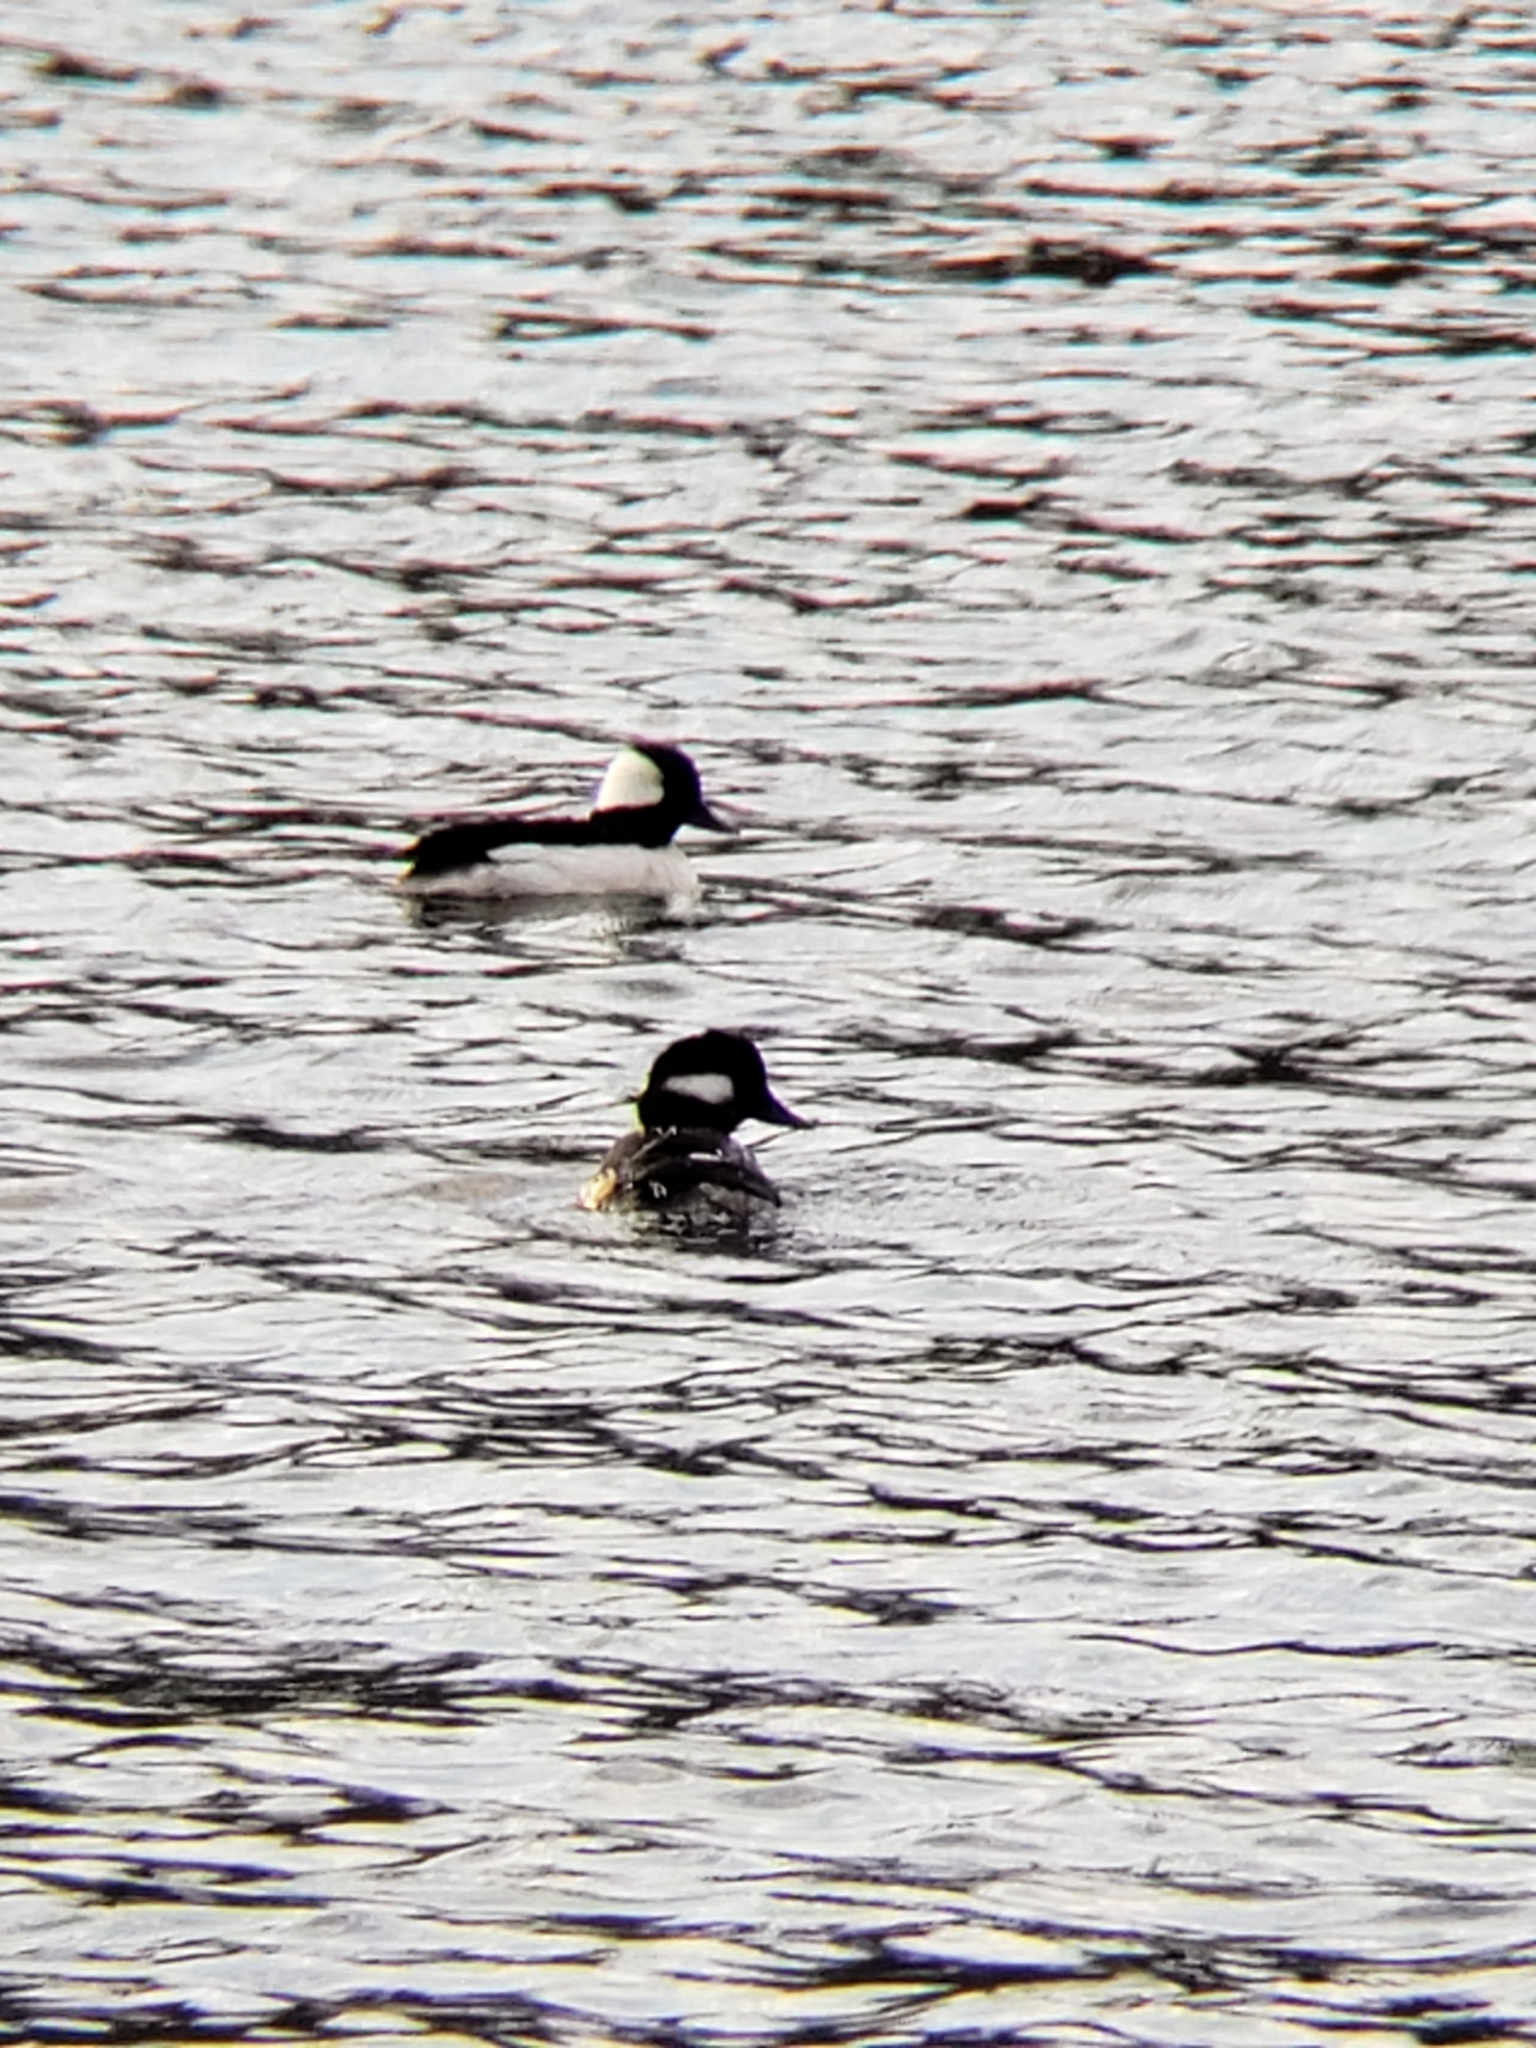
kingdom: Animalia
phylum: Chordata
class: Aves
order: Anseriformes
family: Anatidae
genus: Bucephala
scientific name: Bucephala albeola
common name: Bufflehead
